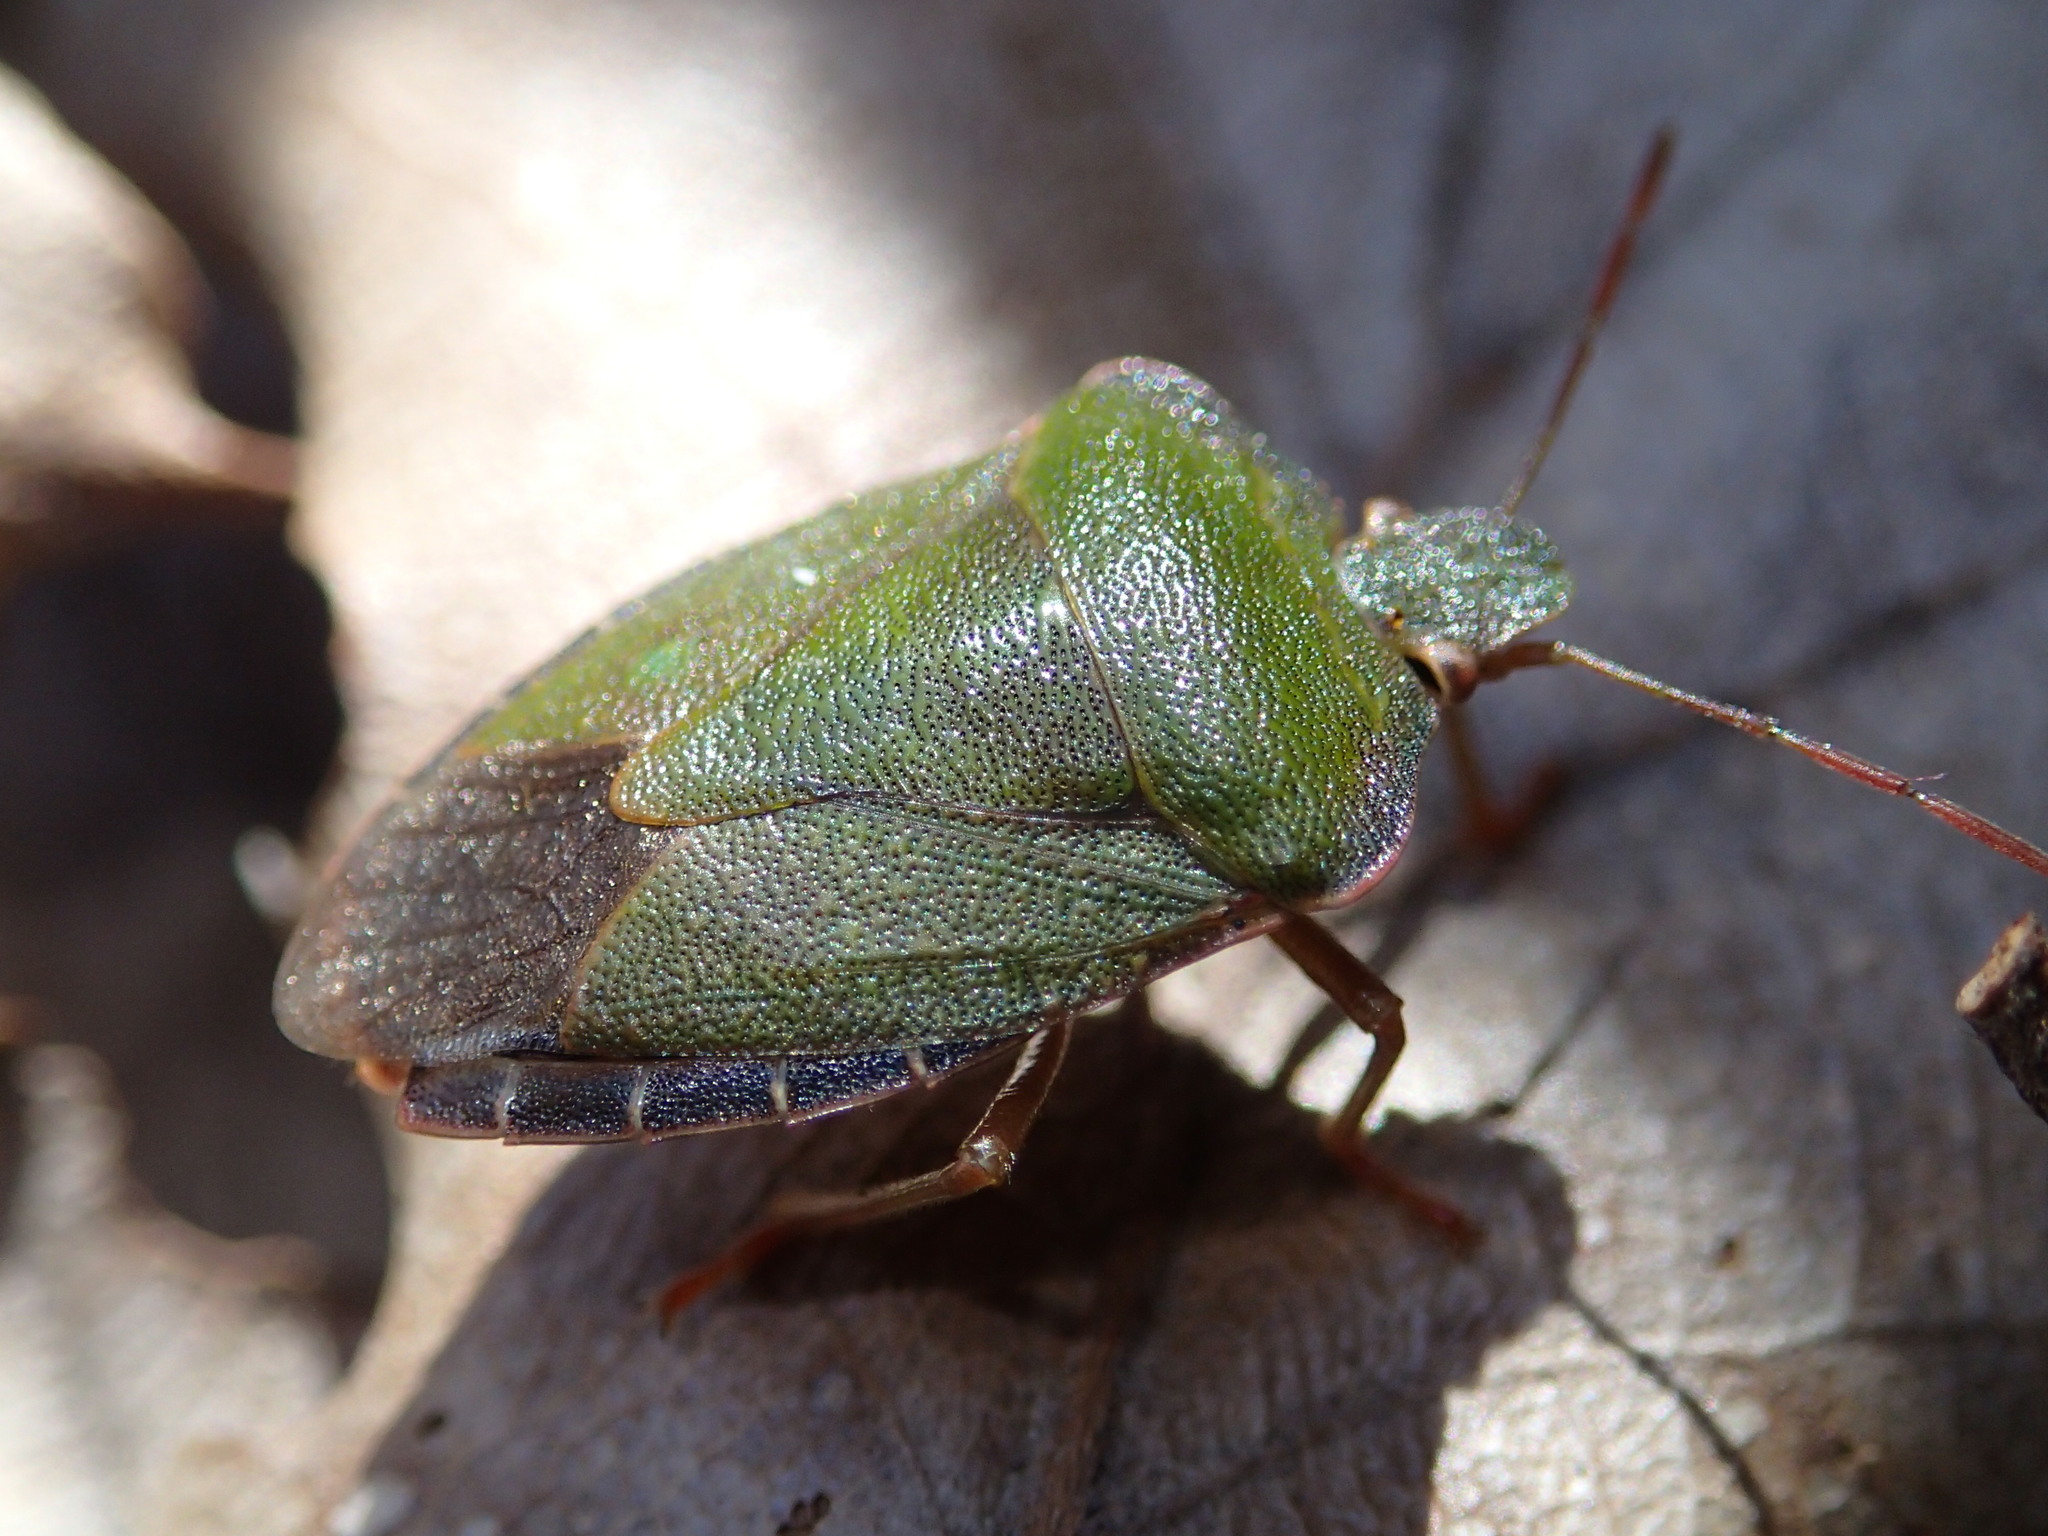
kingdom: Animalia
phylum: Arthropoda
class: Insecta
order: Hemiptera
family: Pentatomidae
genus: Palomena
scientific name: Palomena prasina
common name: Green shieldbug
